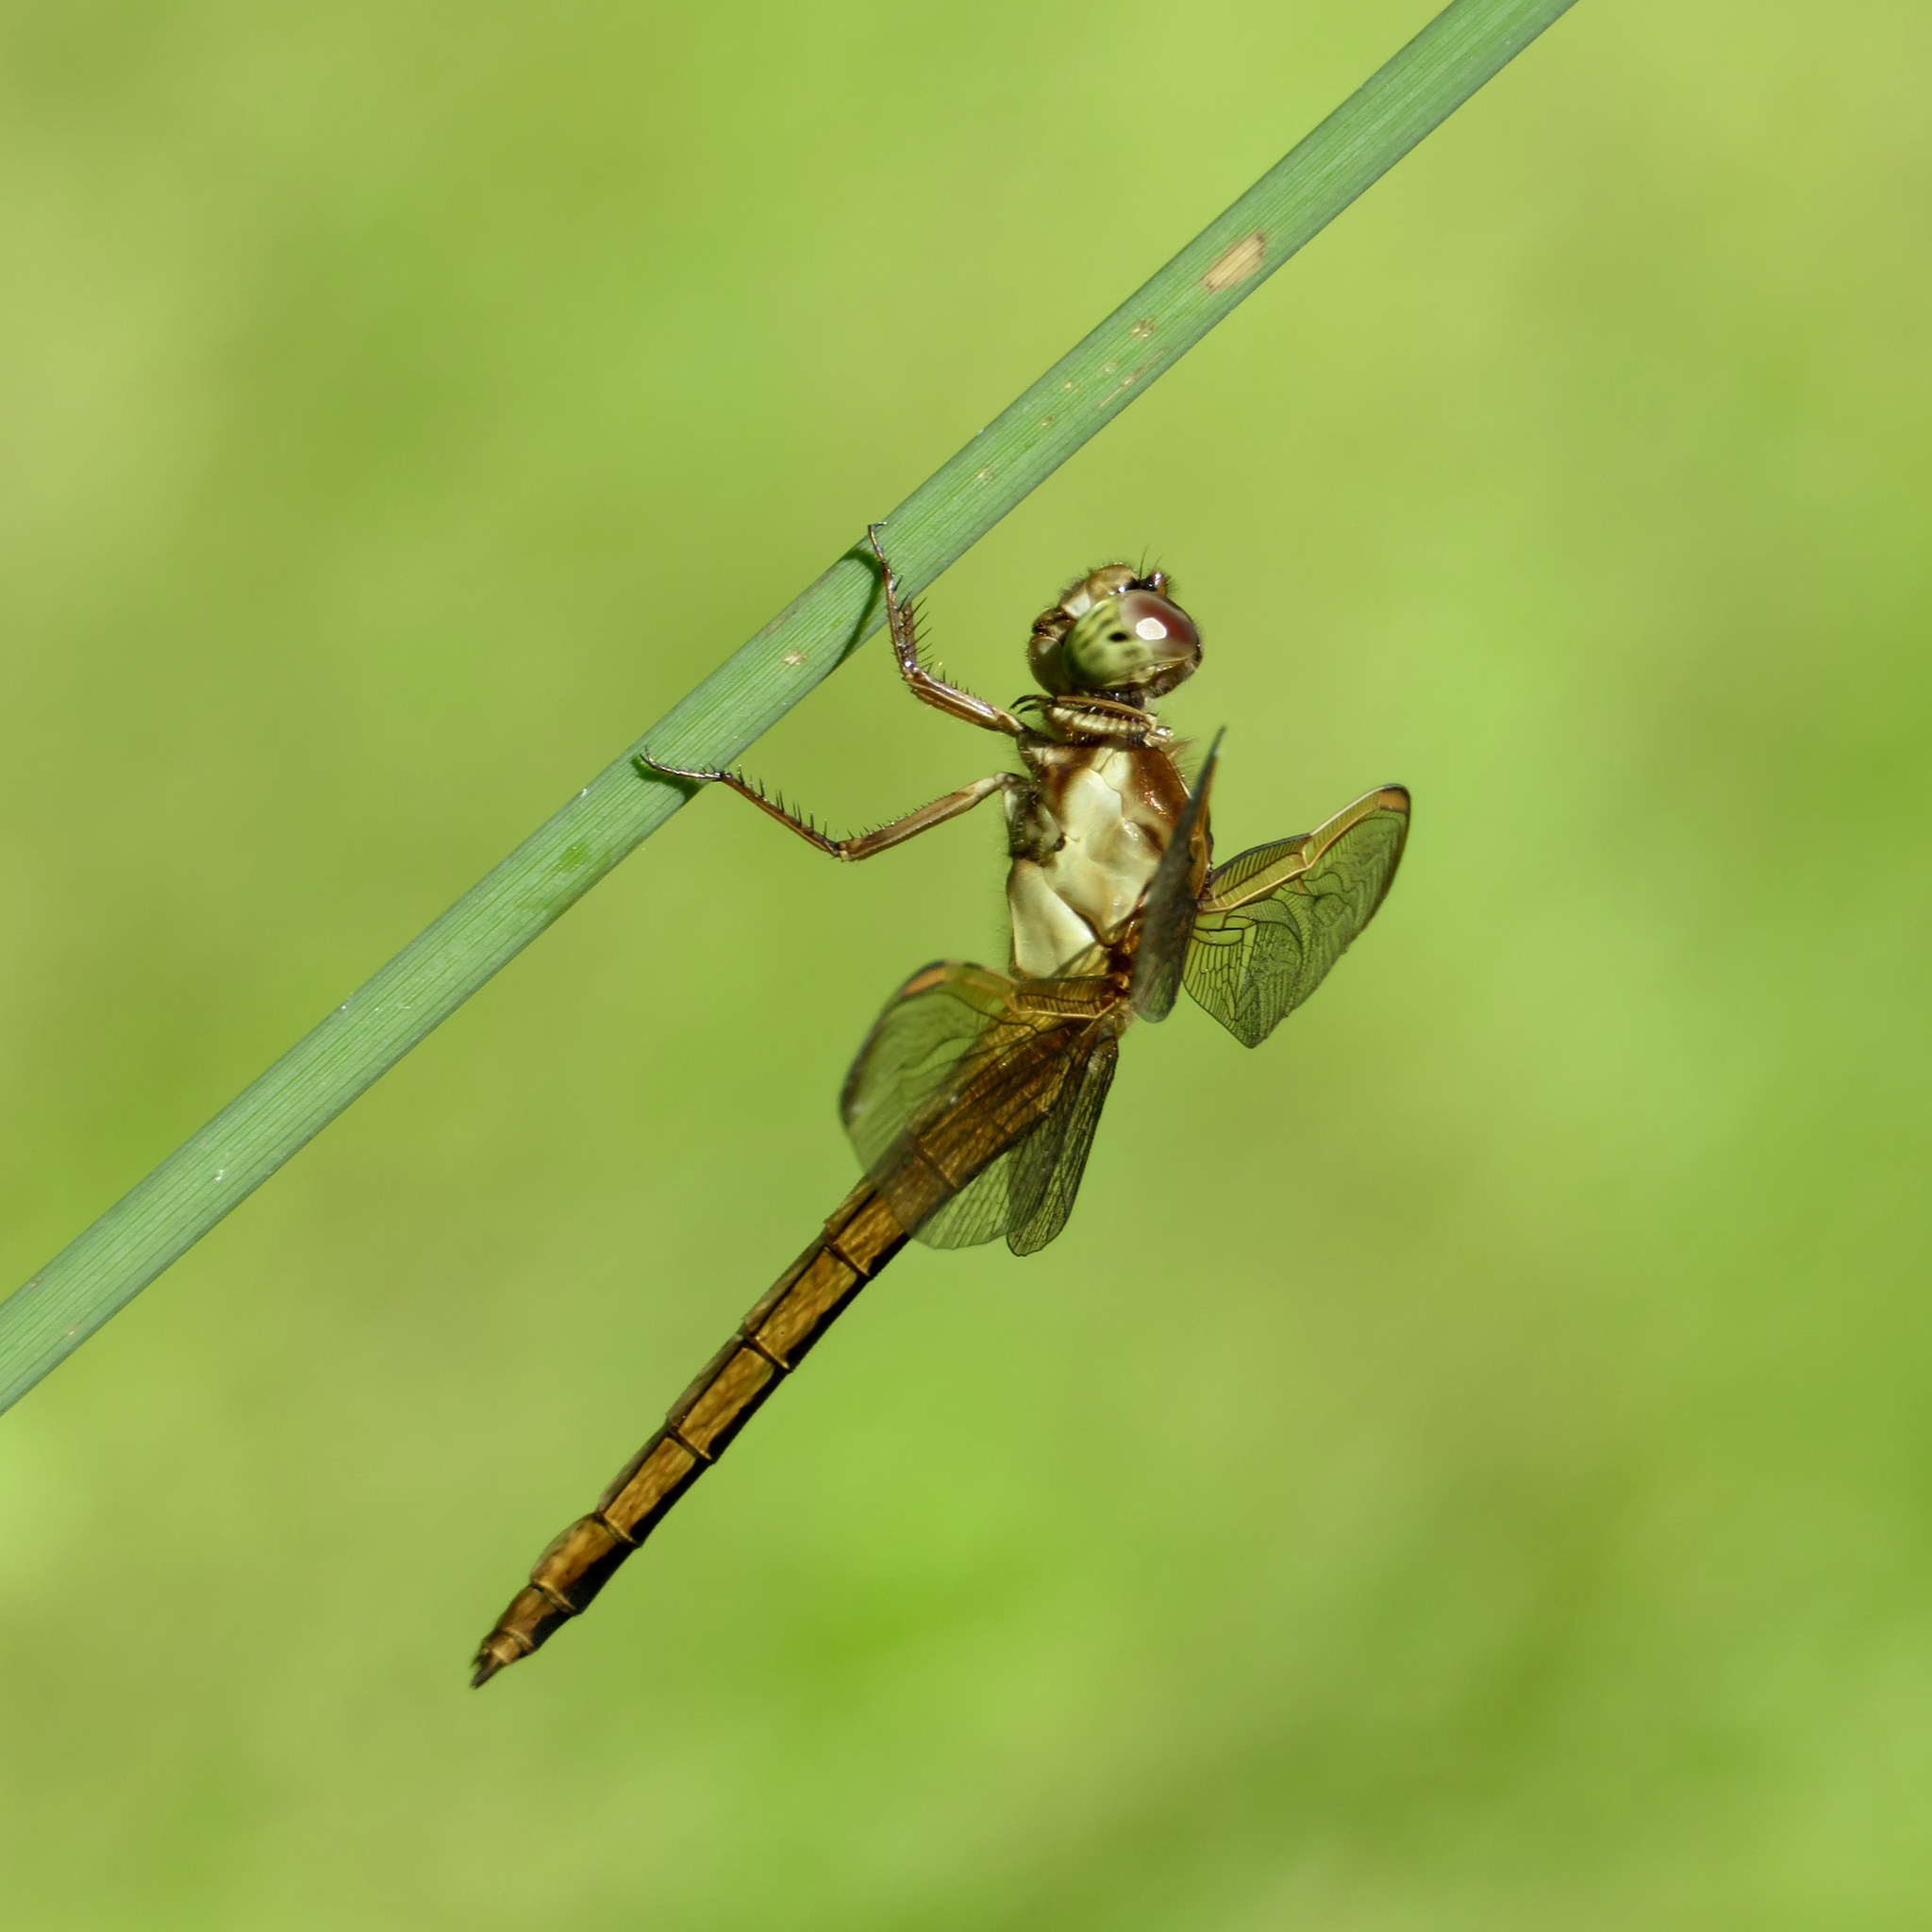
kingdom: Animalia
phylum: Arthropoda
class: Insecta
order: Odonata
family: Libellulidae
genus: Libellula
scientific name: Libellula needhami
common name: Needham's skimmer
